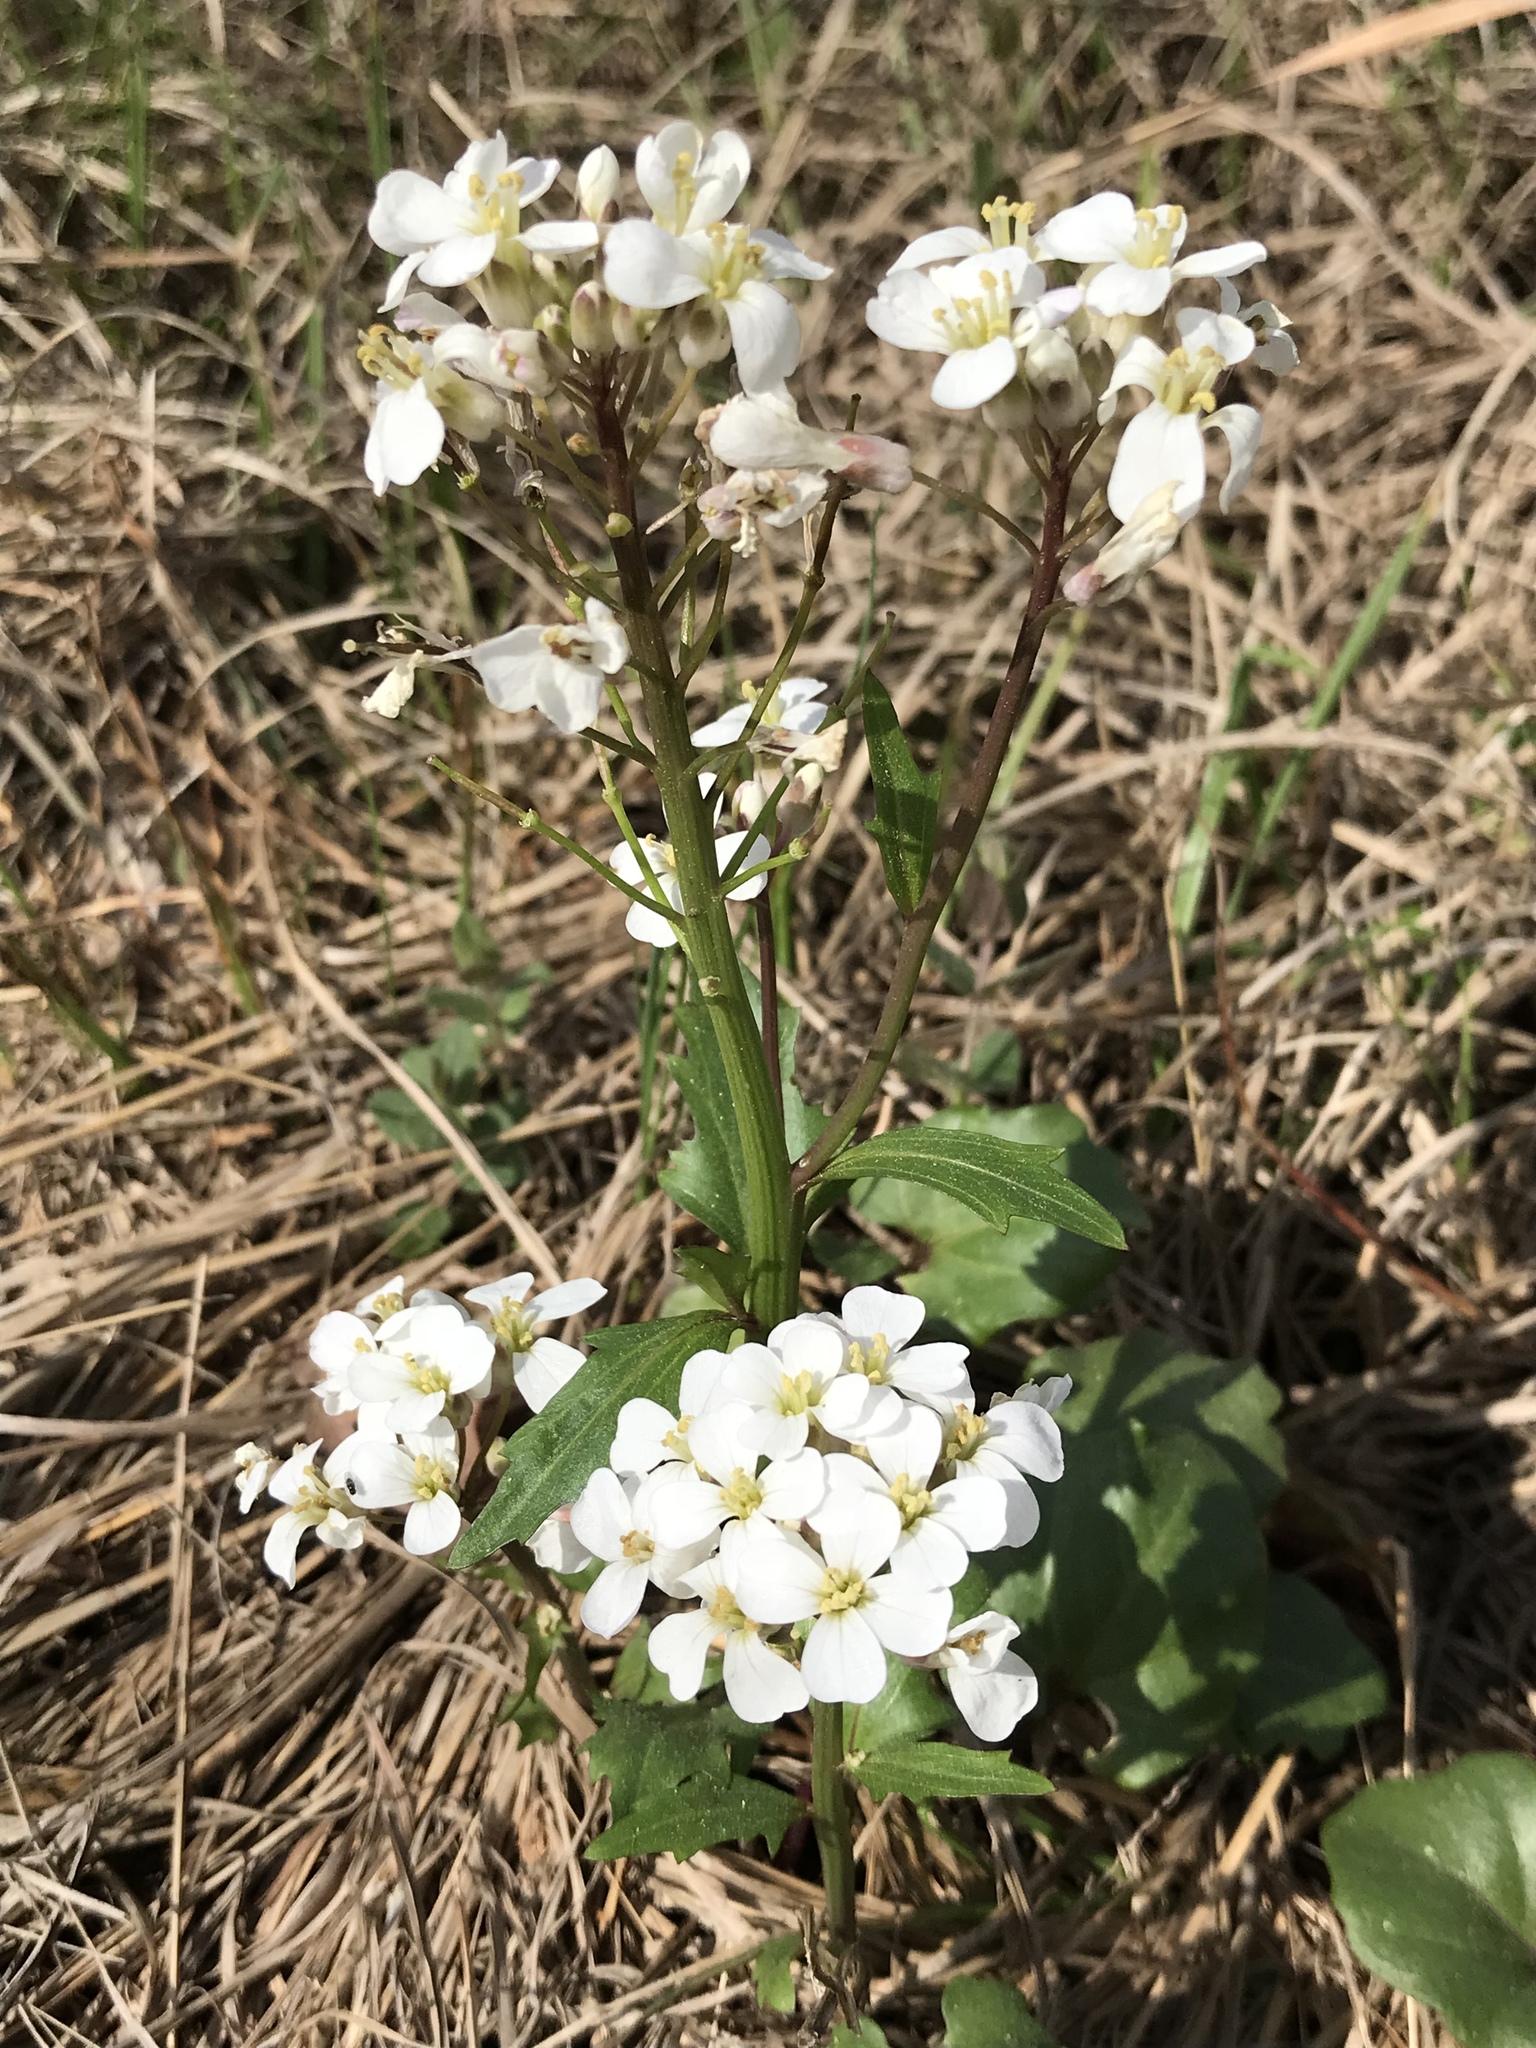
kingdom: Plantae
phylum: Tracheophyta
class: Magnoliopsida
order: Brassicales
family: Brassicaceae
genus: Cardamine
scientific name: Cardamine bulbosa
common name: Spring cress
